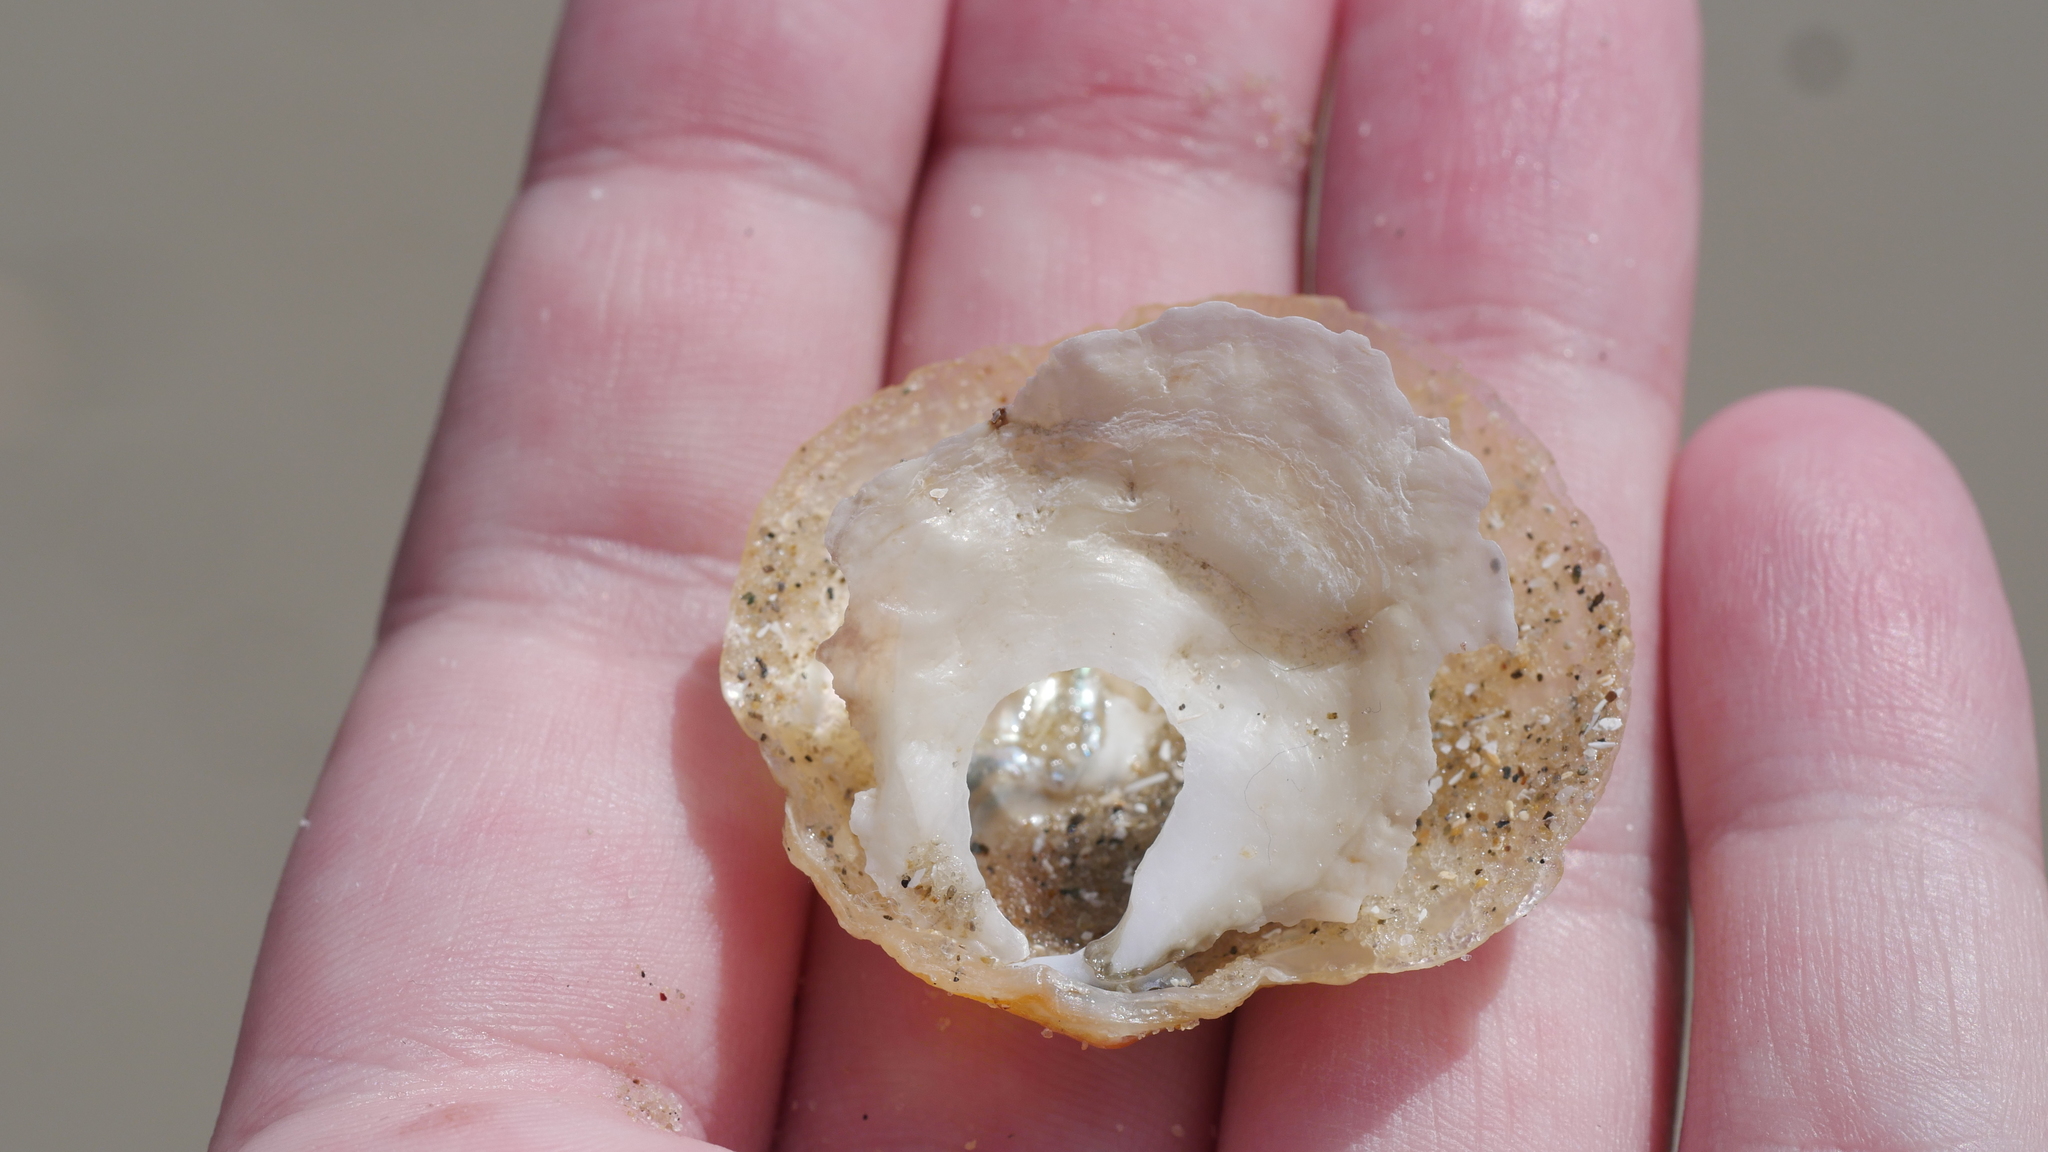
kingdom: Animalia
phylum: Mollusca
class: Bivalvia
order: Pectinida
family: Anomiidae
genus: Anomia
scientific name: Anomia simplex
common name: Common jingle shell
